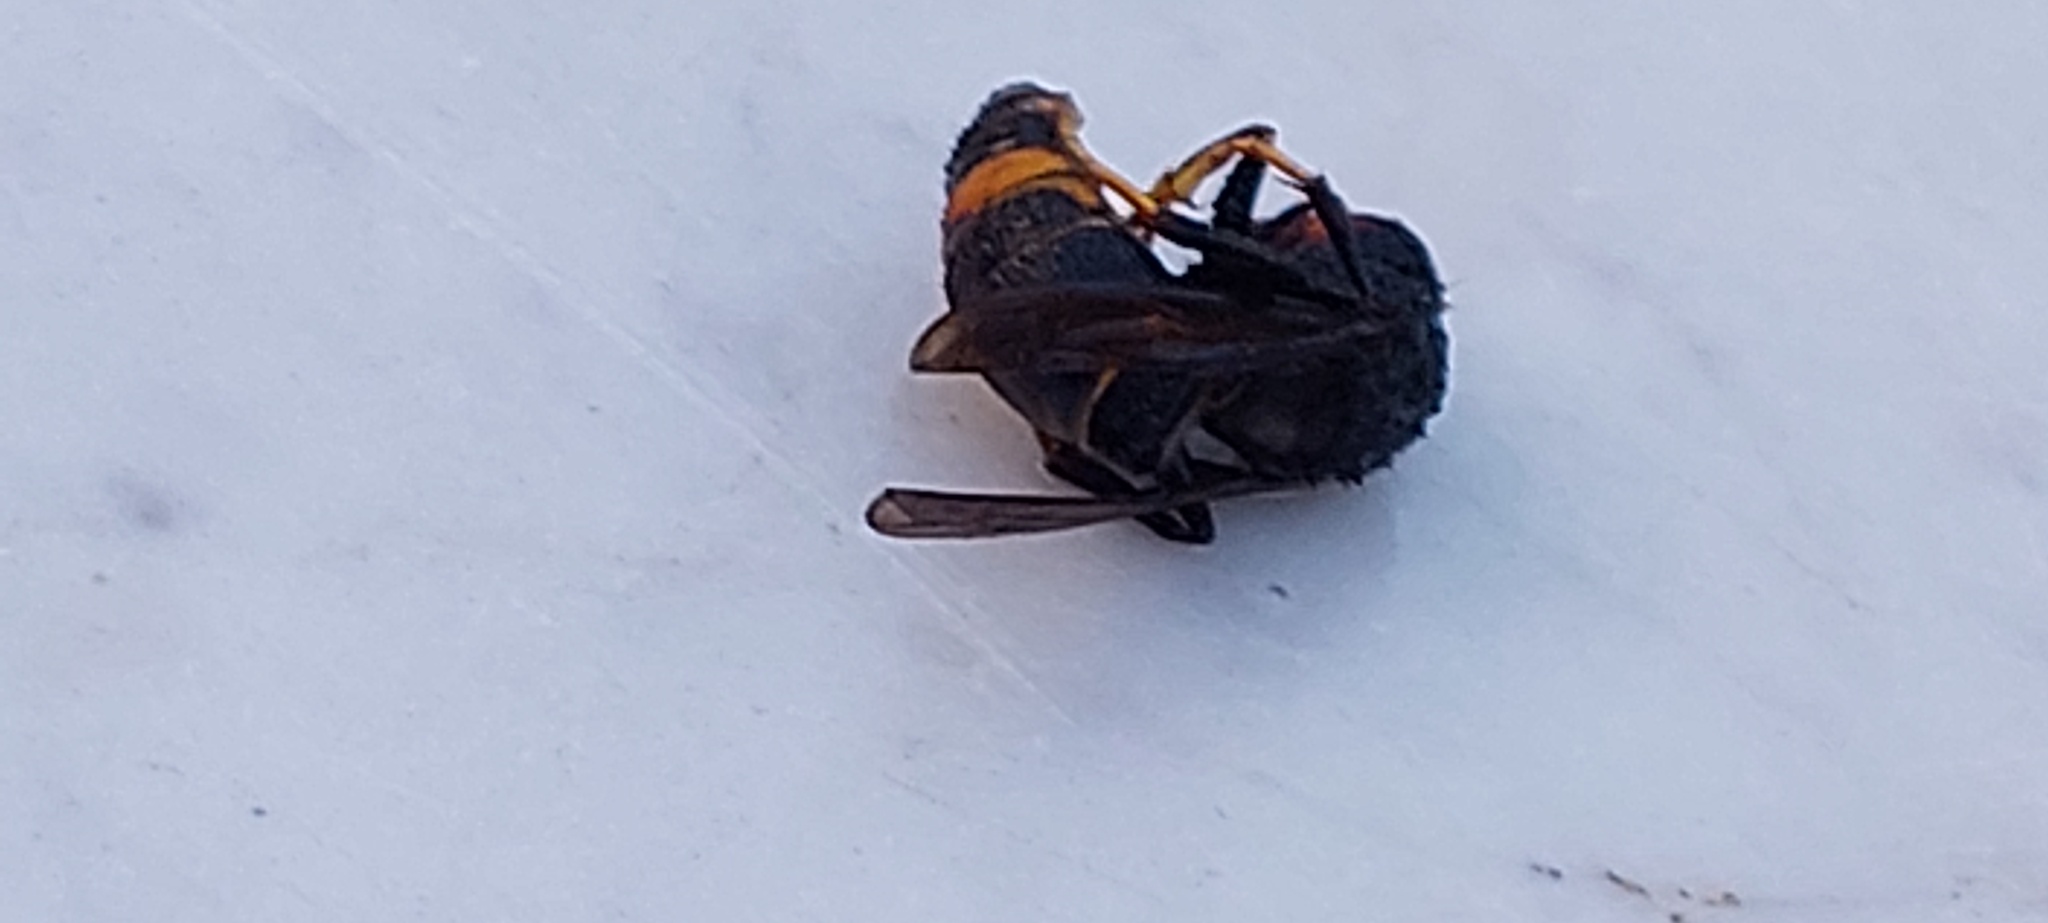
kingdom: Animalia
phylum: Arthropoda
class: Insecta
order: Hymenoptera
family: Vespidae
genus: Vespa
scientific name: Vespa velutina
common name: Asian hornet
